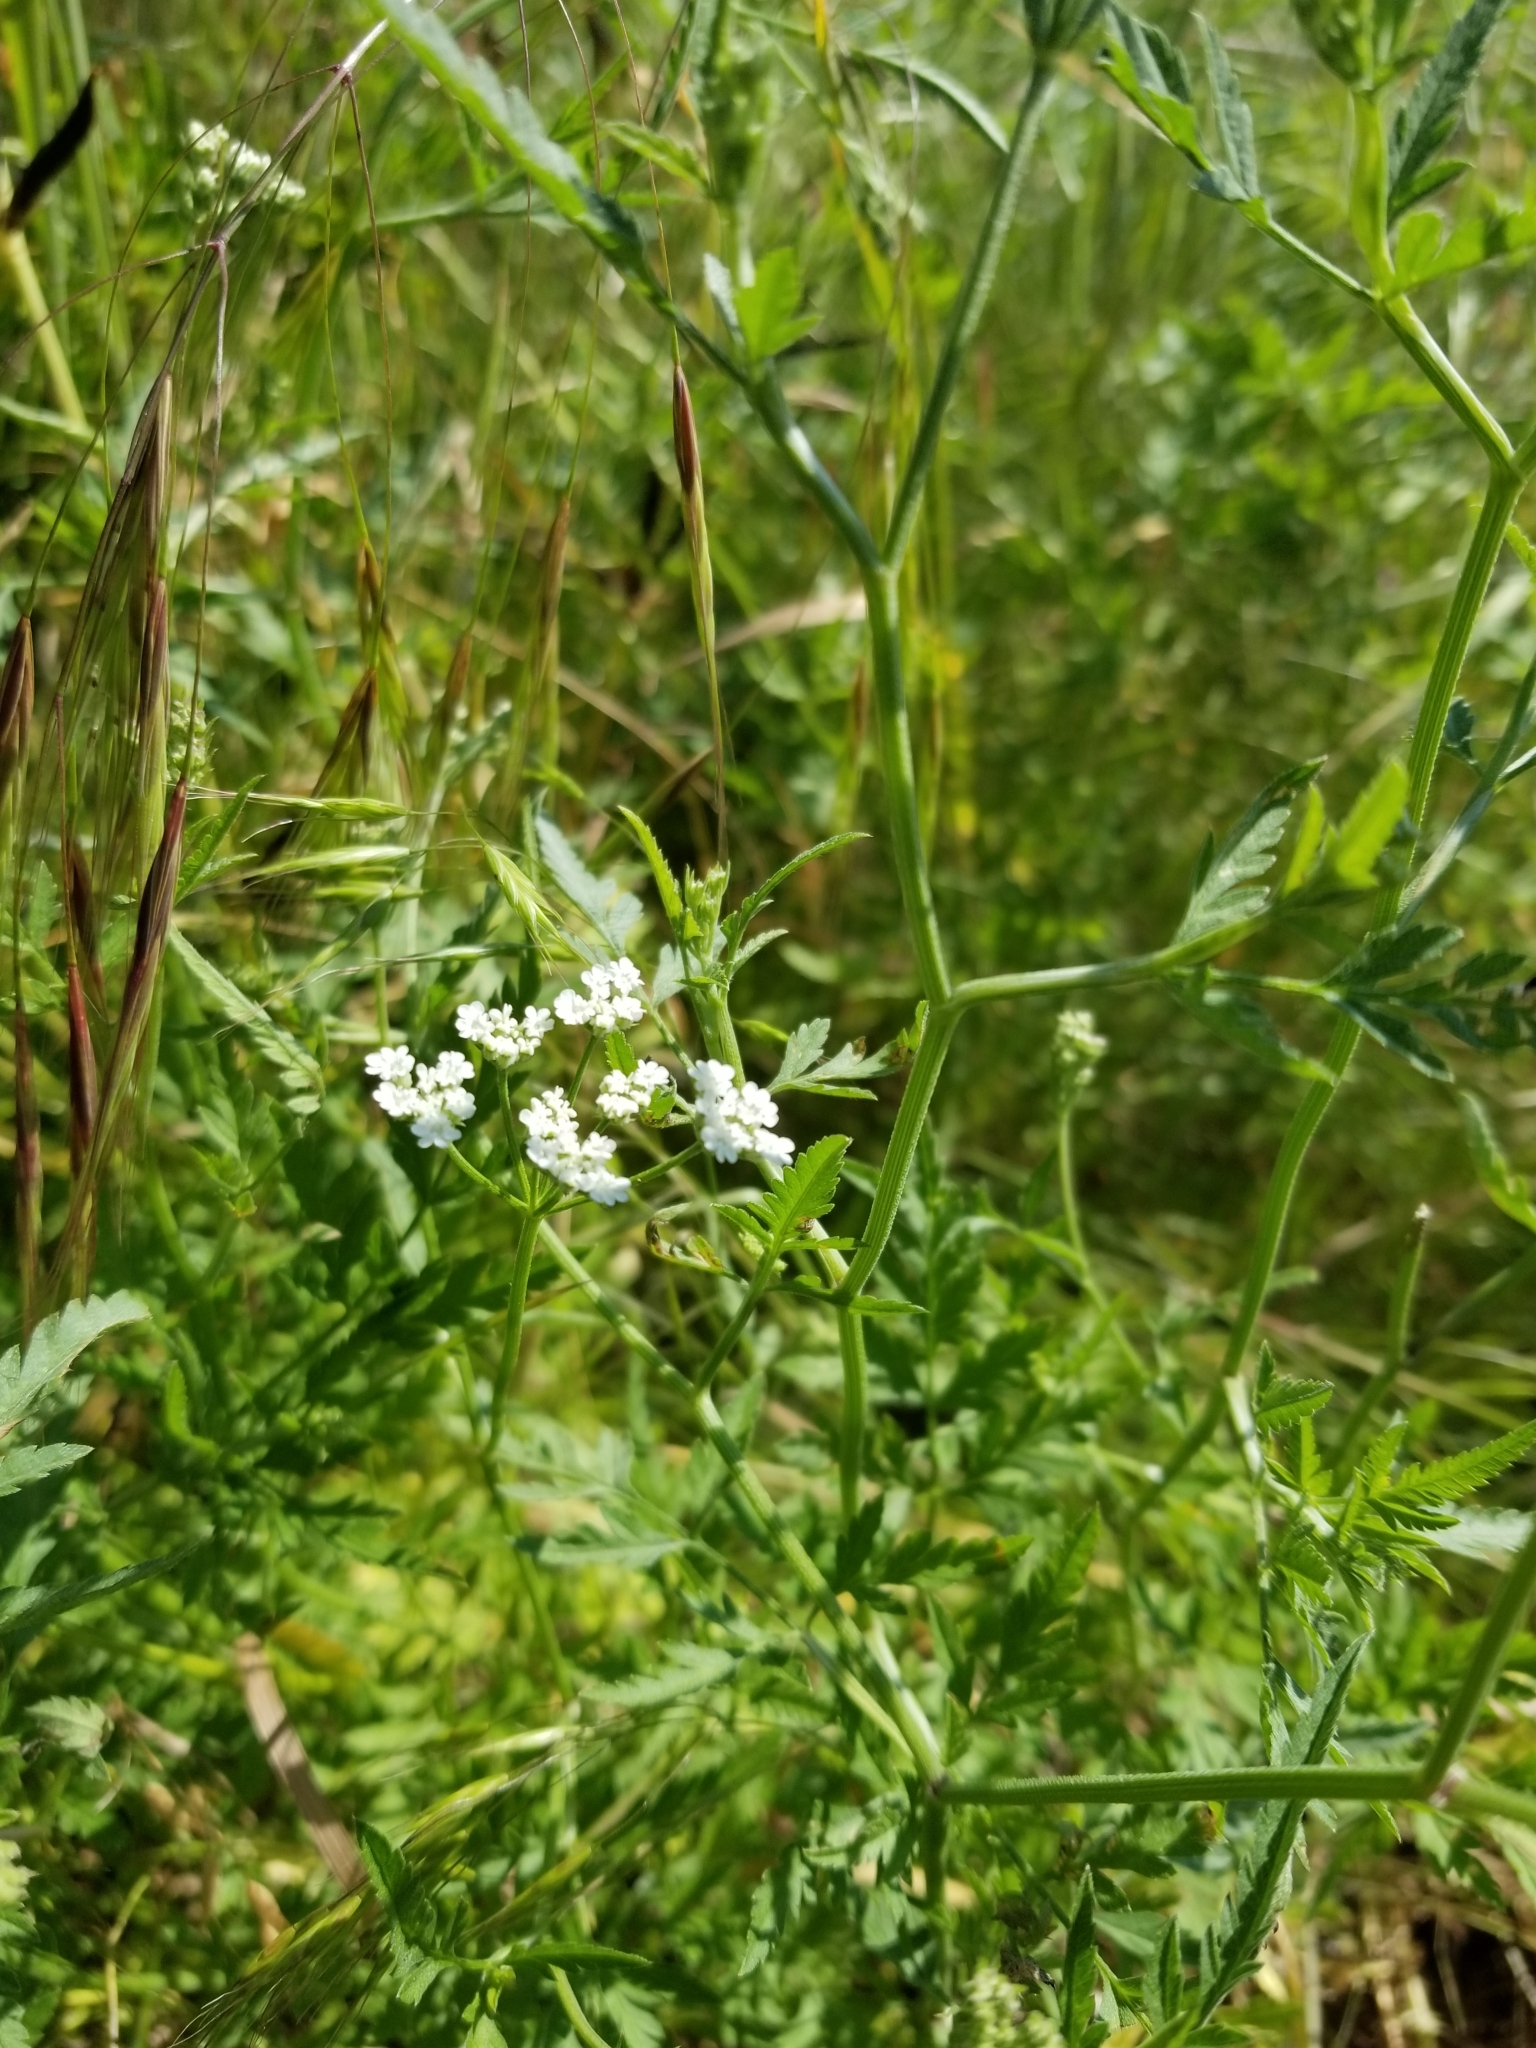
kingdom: Plantae
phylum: Tracheophyta
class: Magnoliopsida
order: Apiales
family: Apiaceae
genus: Torilis
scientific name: Torilis arvensis
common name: Spreading hedge-parsley
